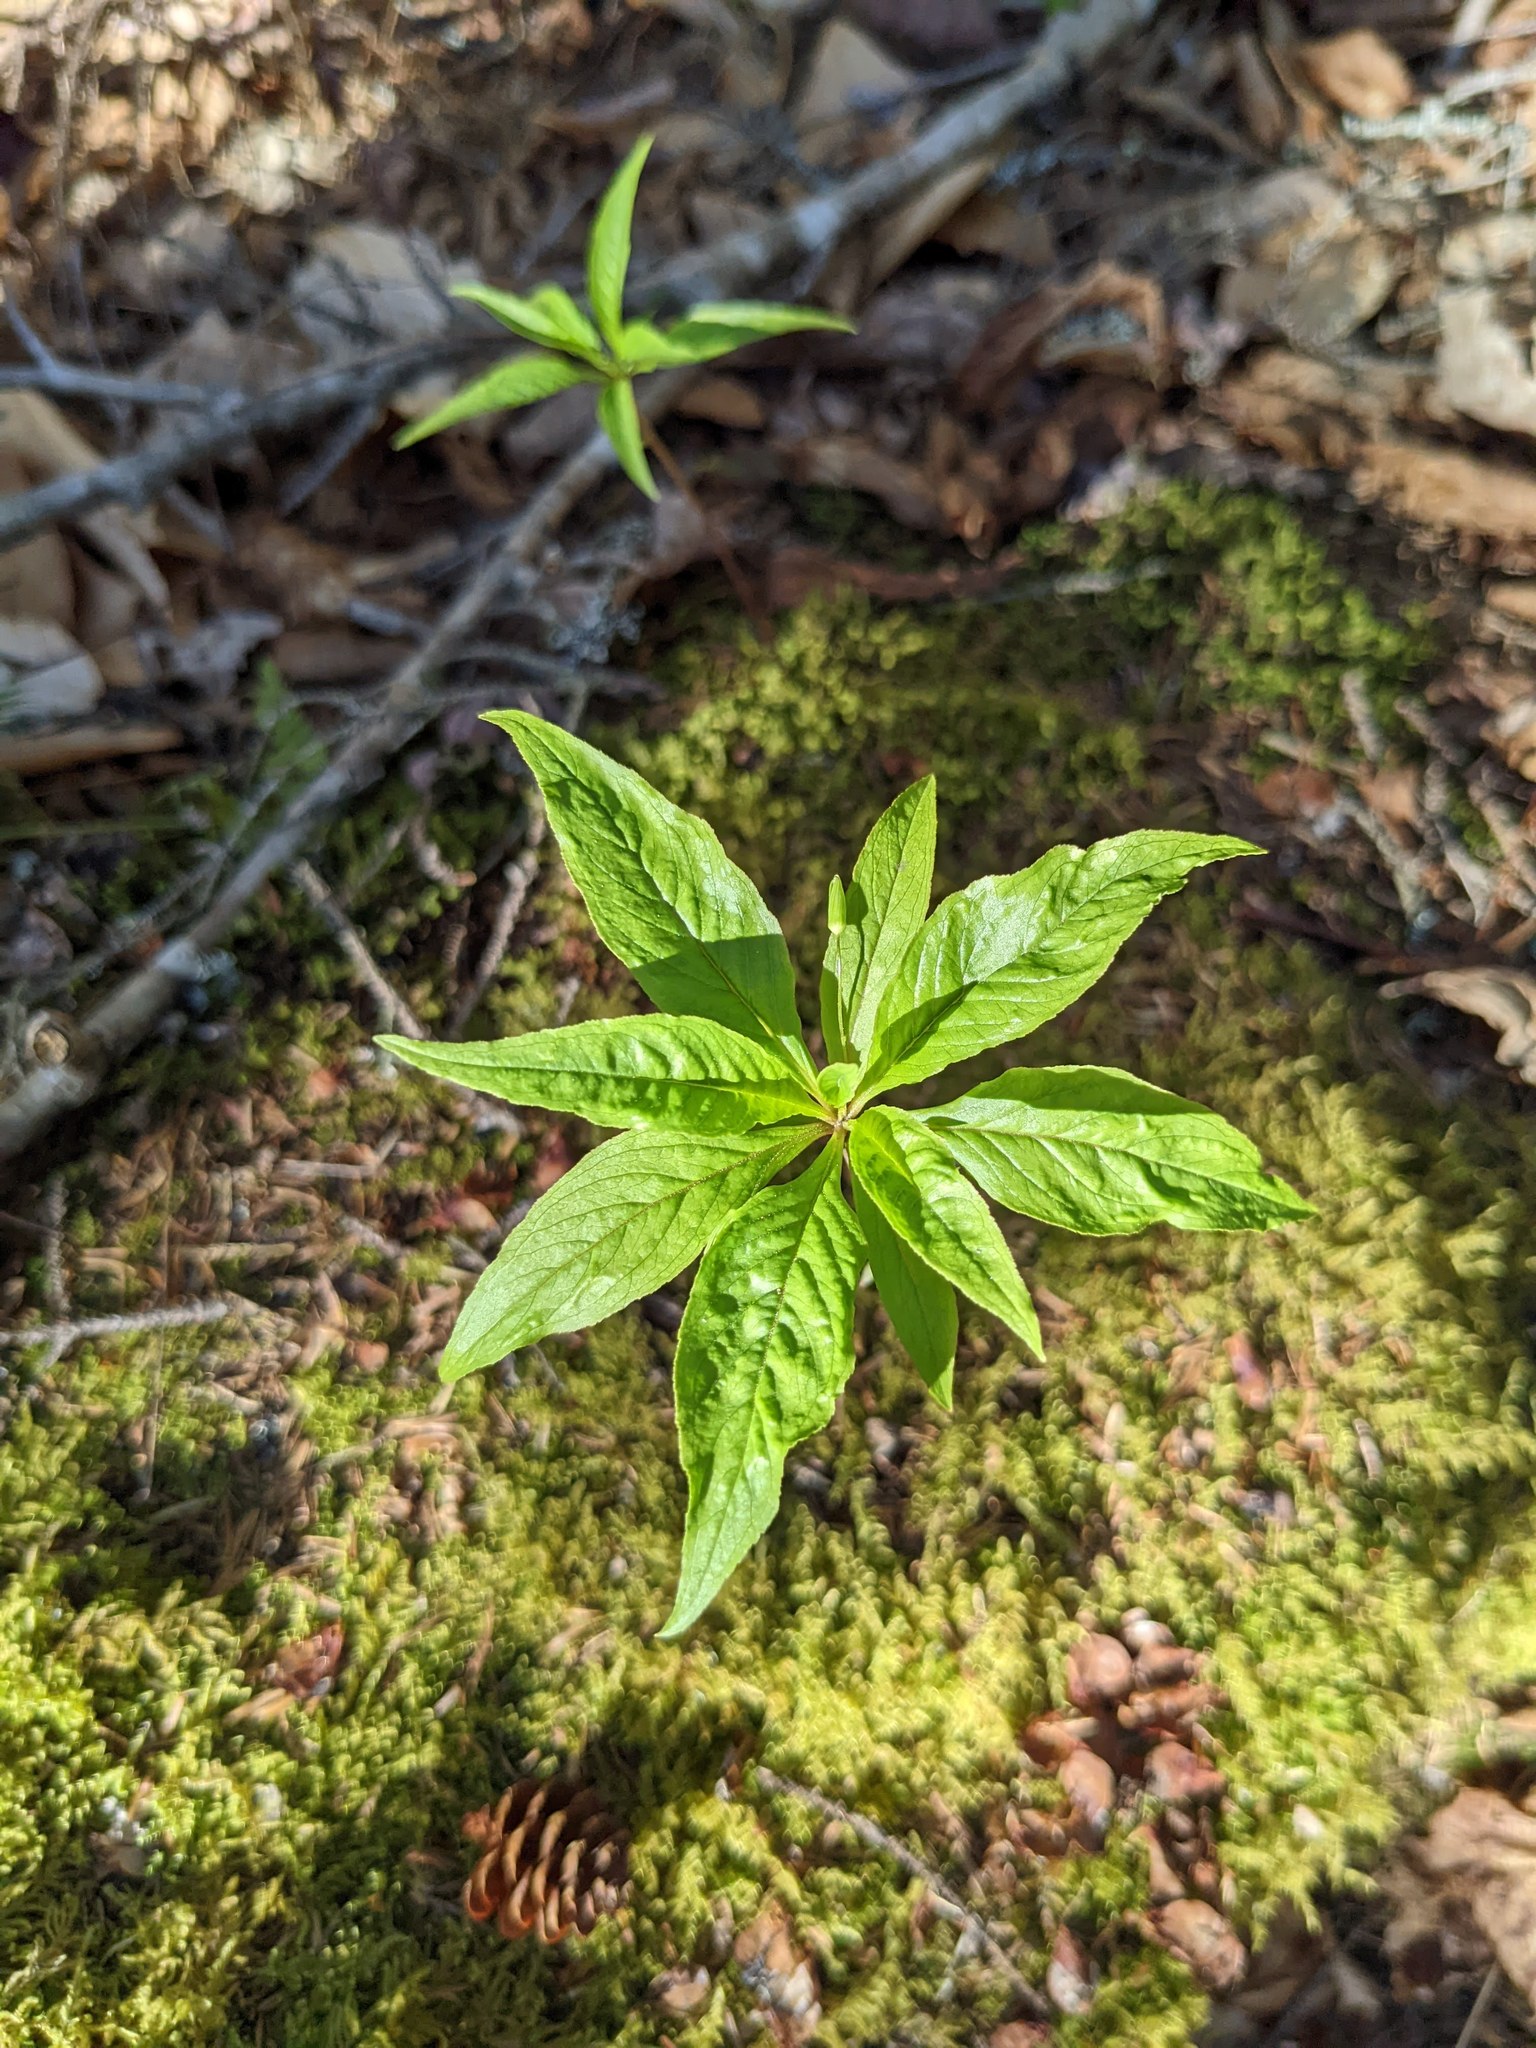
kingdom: Plantae
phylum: Tracheophyta
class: Magnoliopsida
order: Ericales
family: Primulaceae
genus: Lysimachia
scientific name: Lysimachia borealis
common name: American starflower
